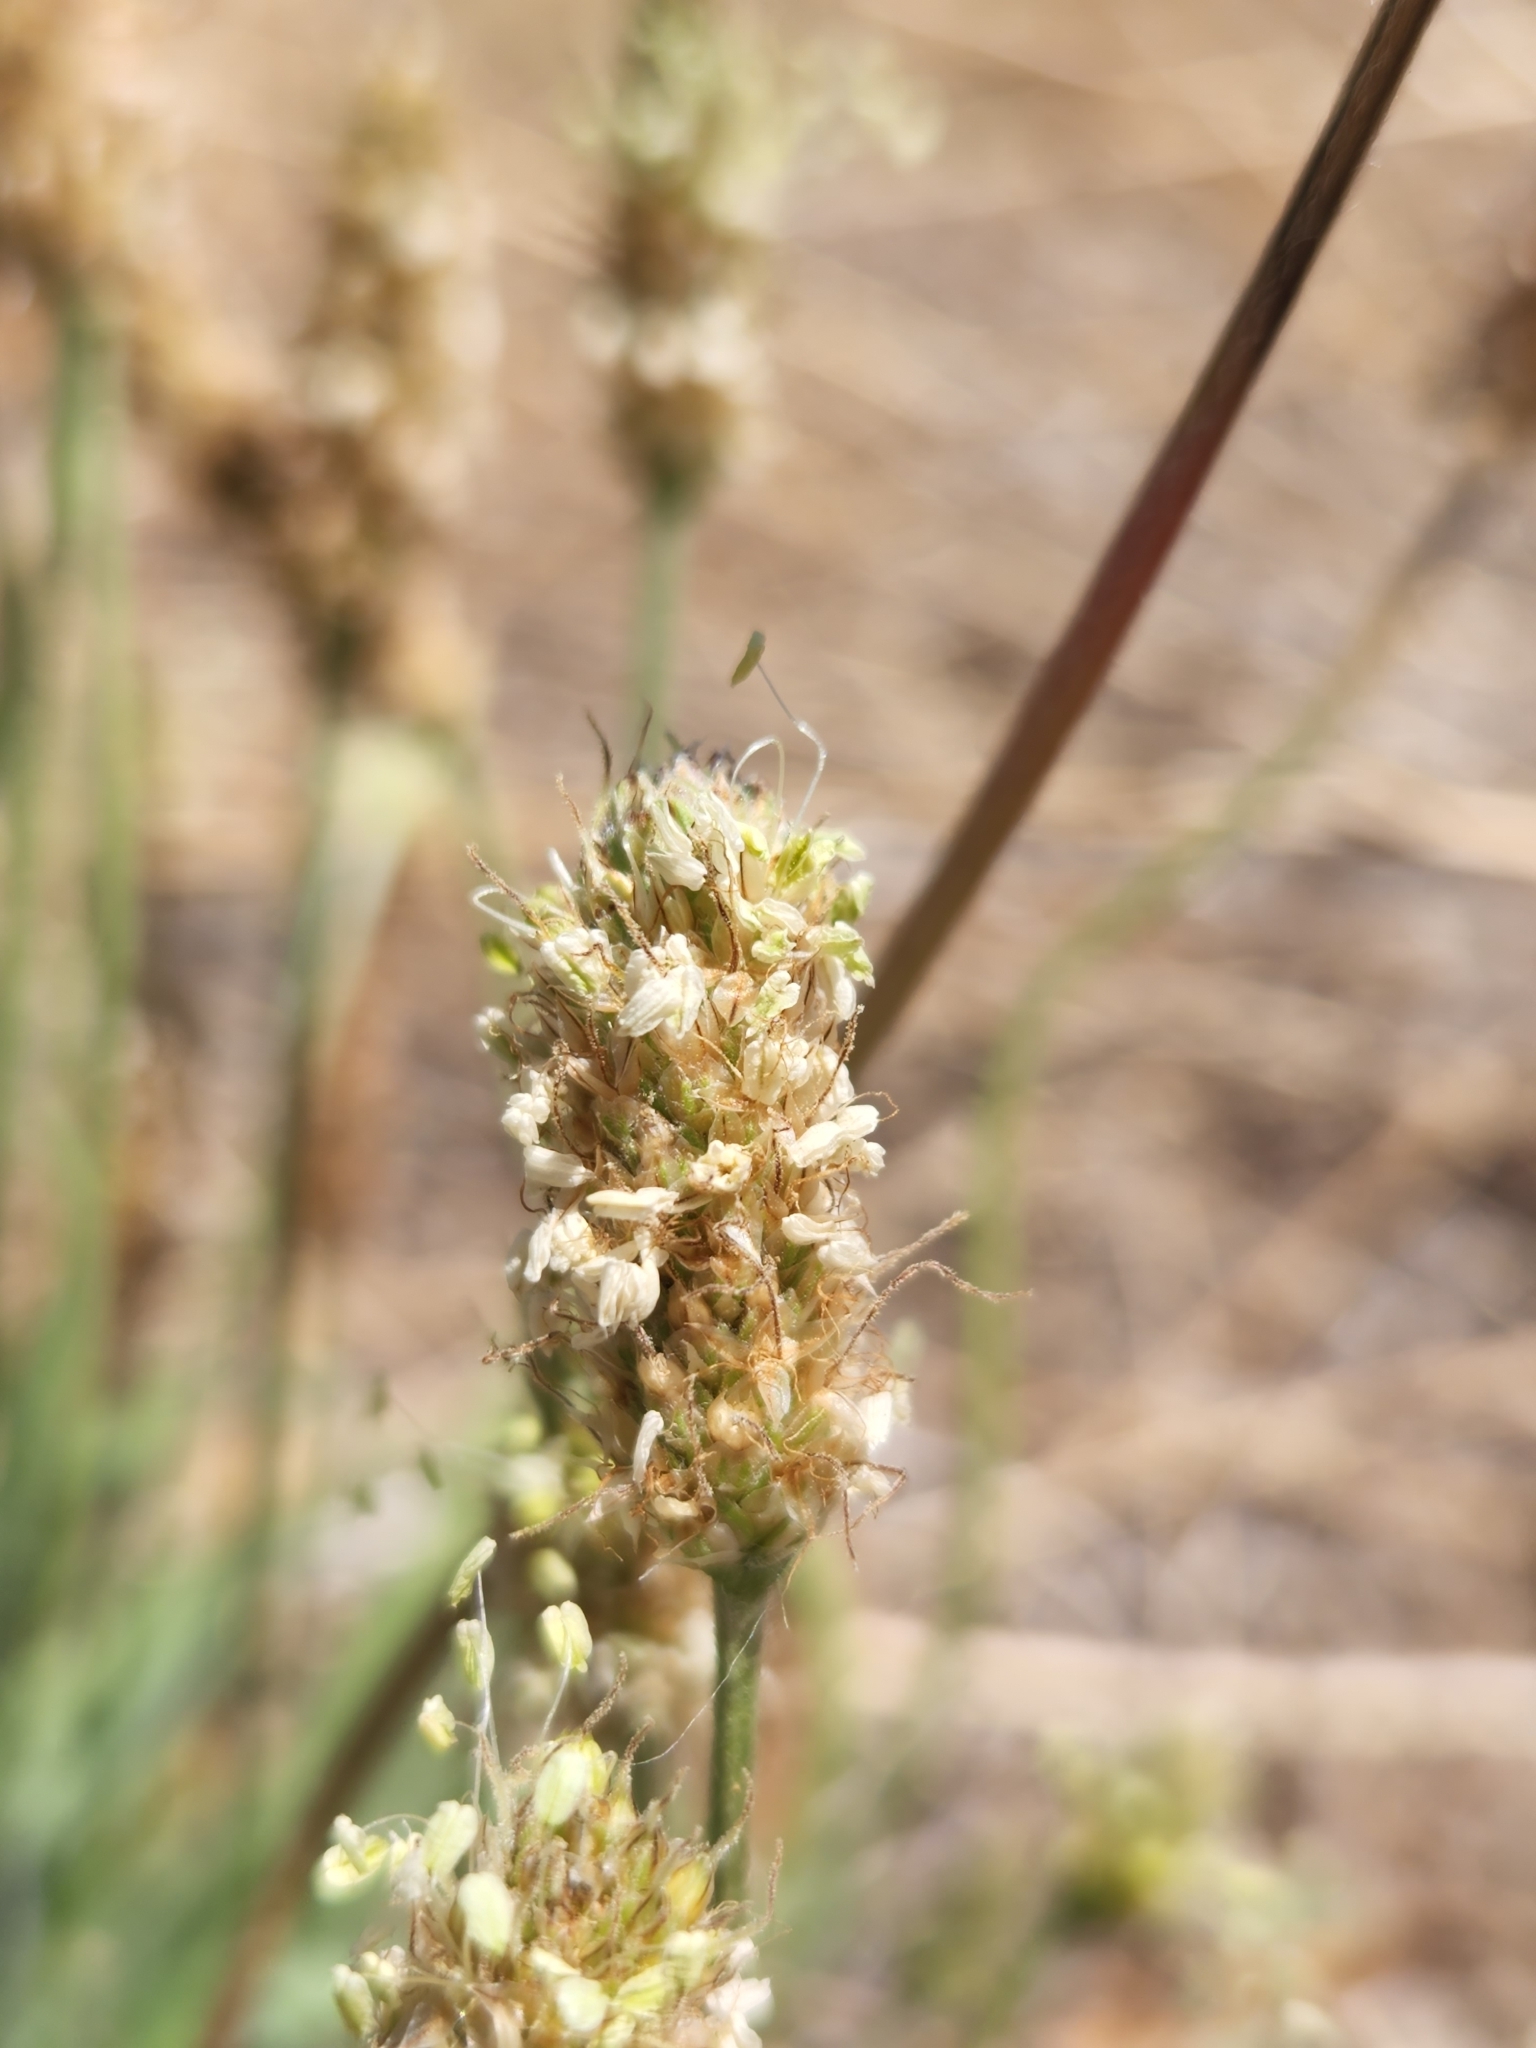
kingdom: Plantae
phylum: Tracheophyta
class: Magnoliopsida
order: Lamiales
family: Plantaginaceae
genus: Plantago
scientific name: Plantago lanceolata
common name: Ribwort plantain
